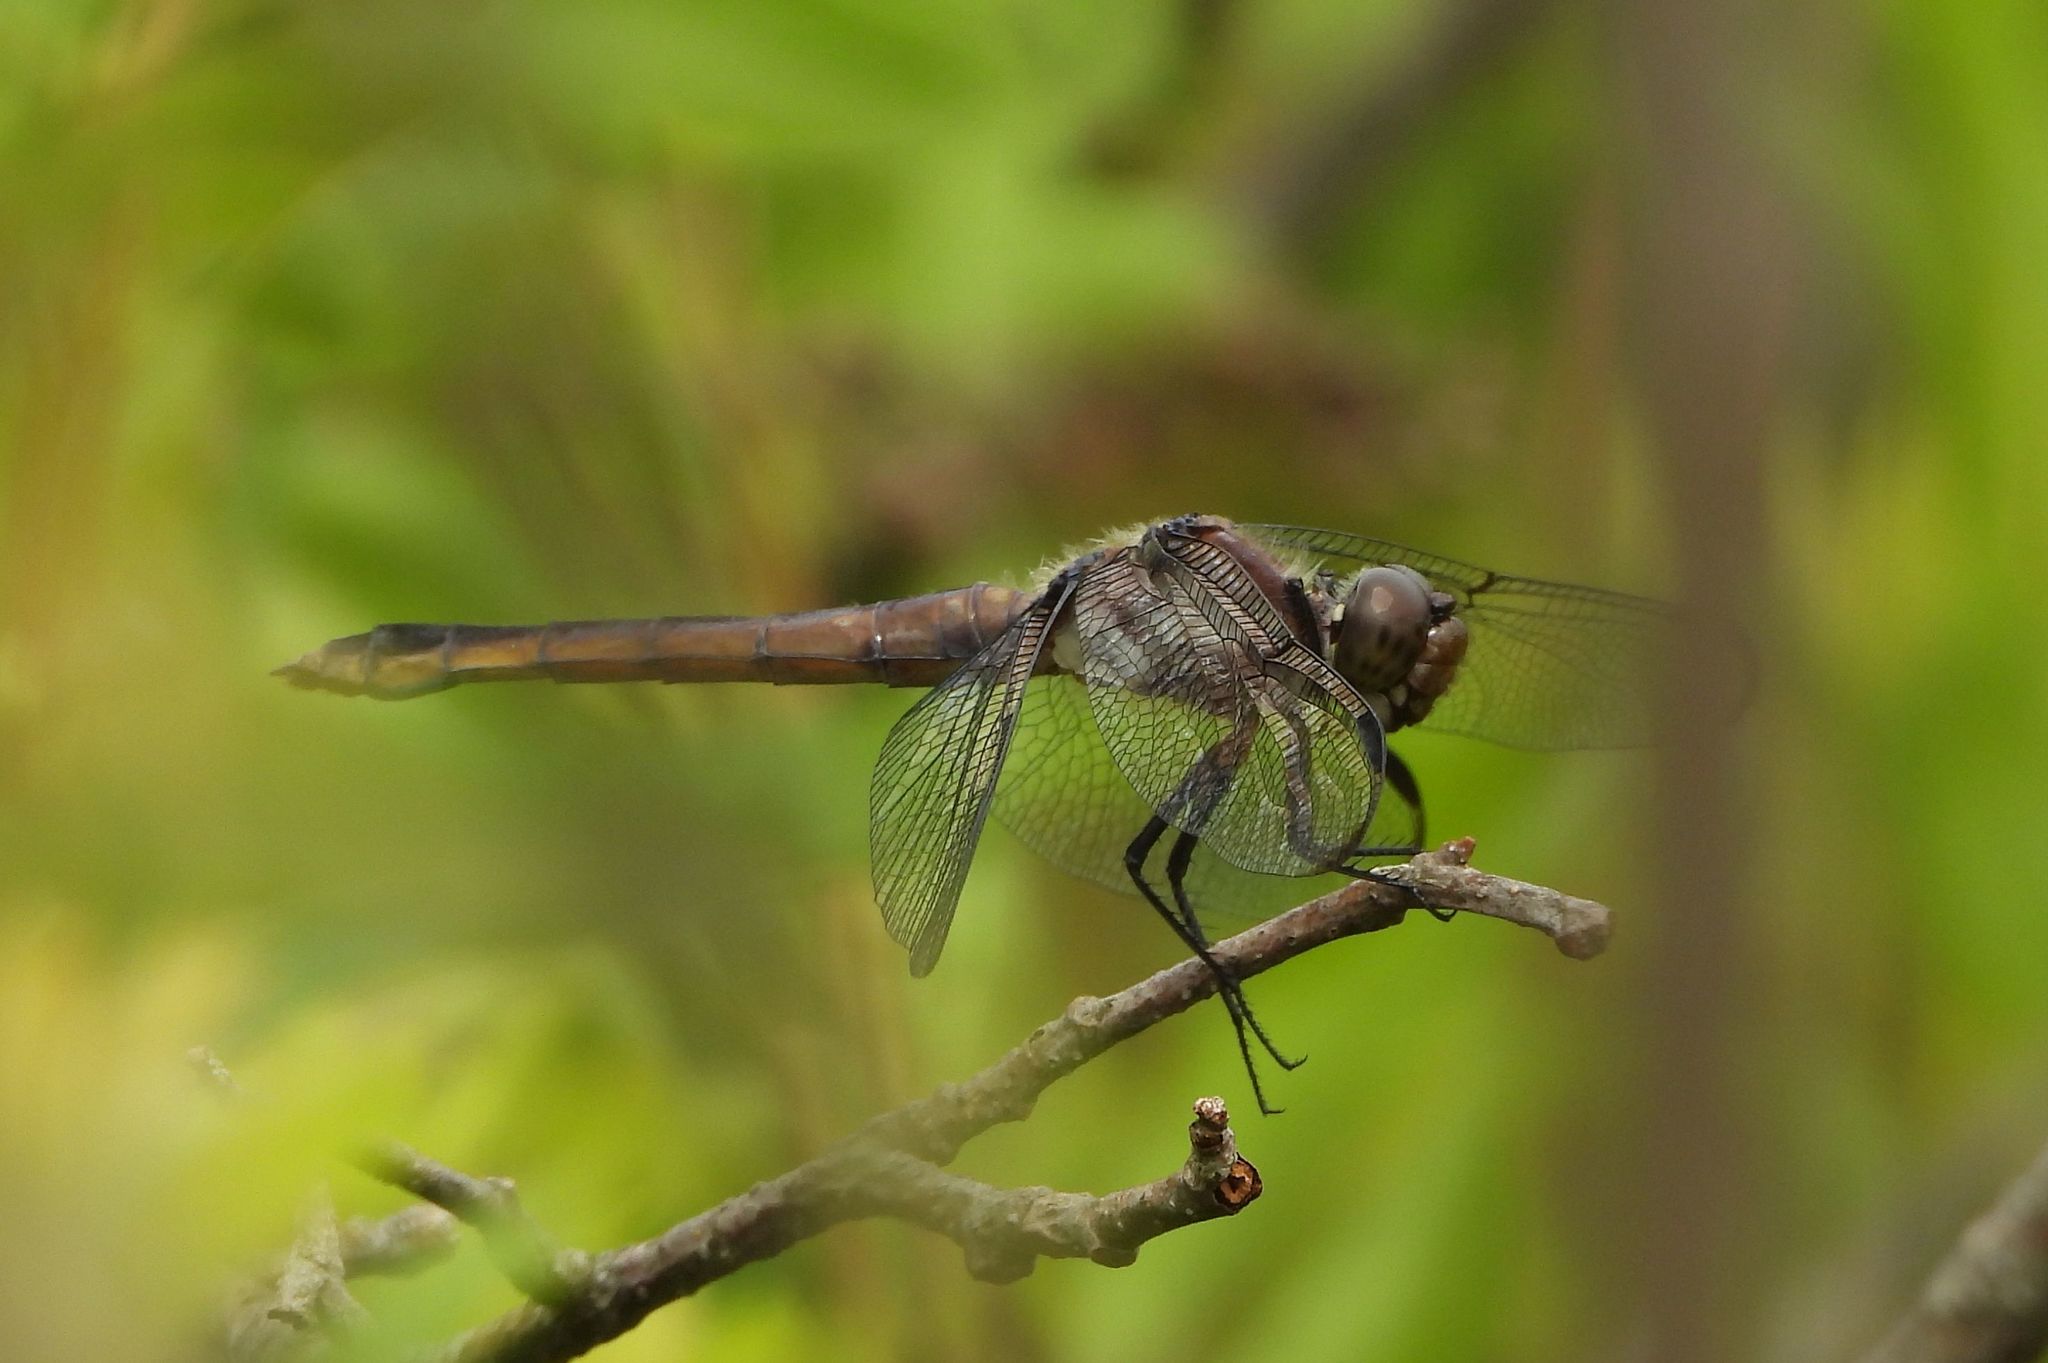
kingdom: Animalia
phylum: Arthropoda
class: Insecta
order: Odonata
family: Libellulidae
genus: Libellula
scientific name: Libellula incesta
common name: Slaty skimmer
